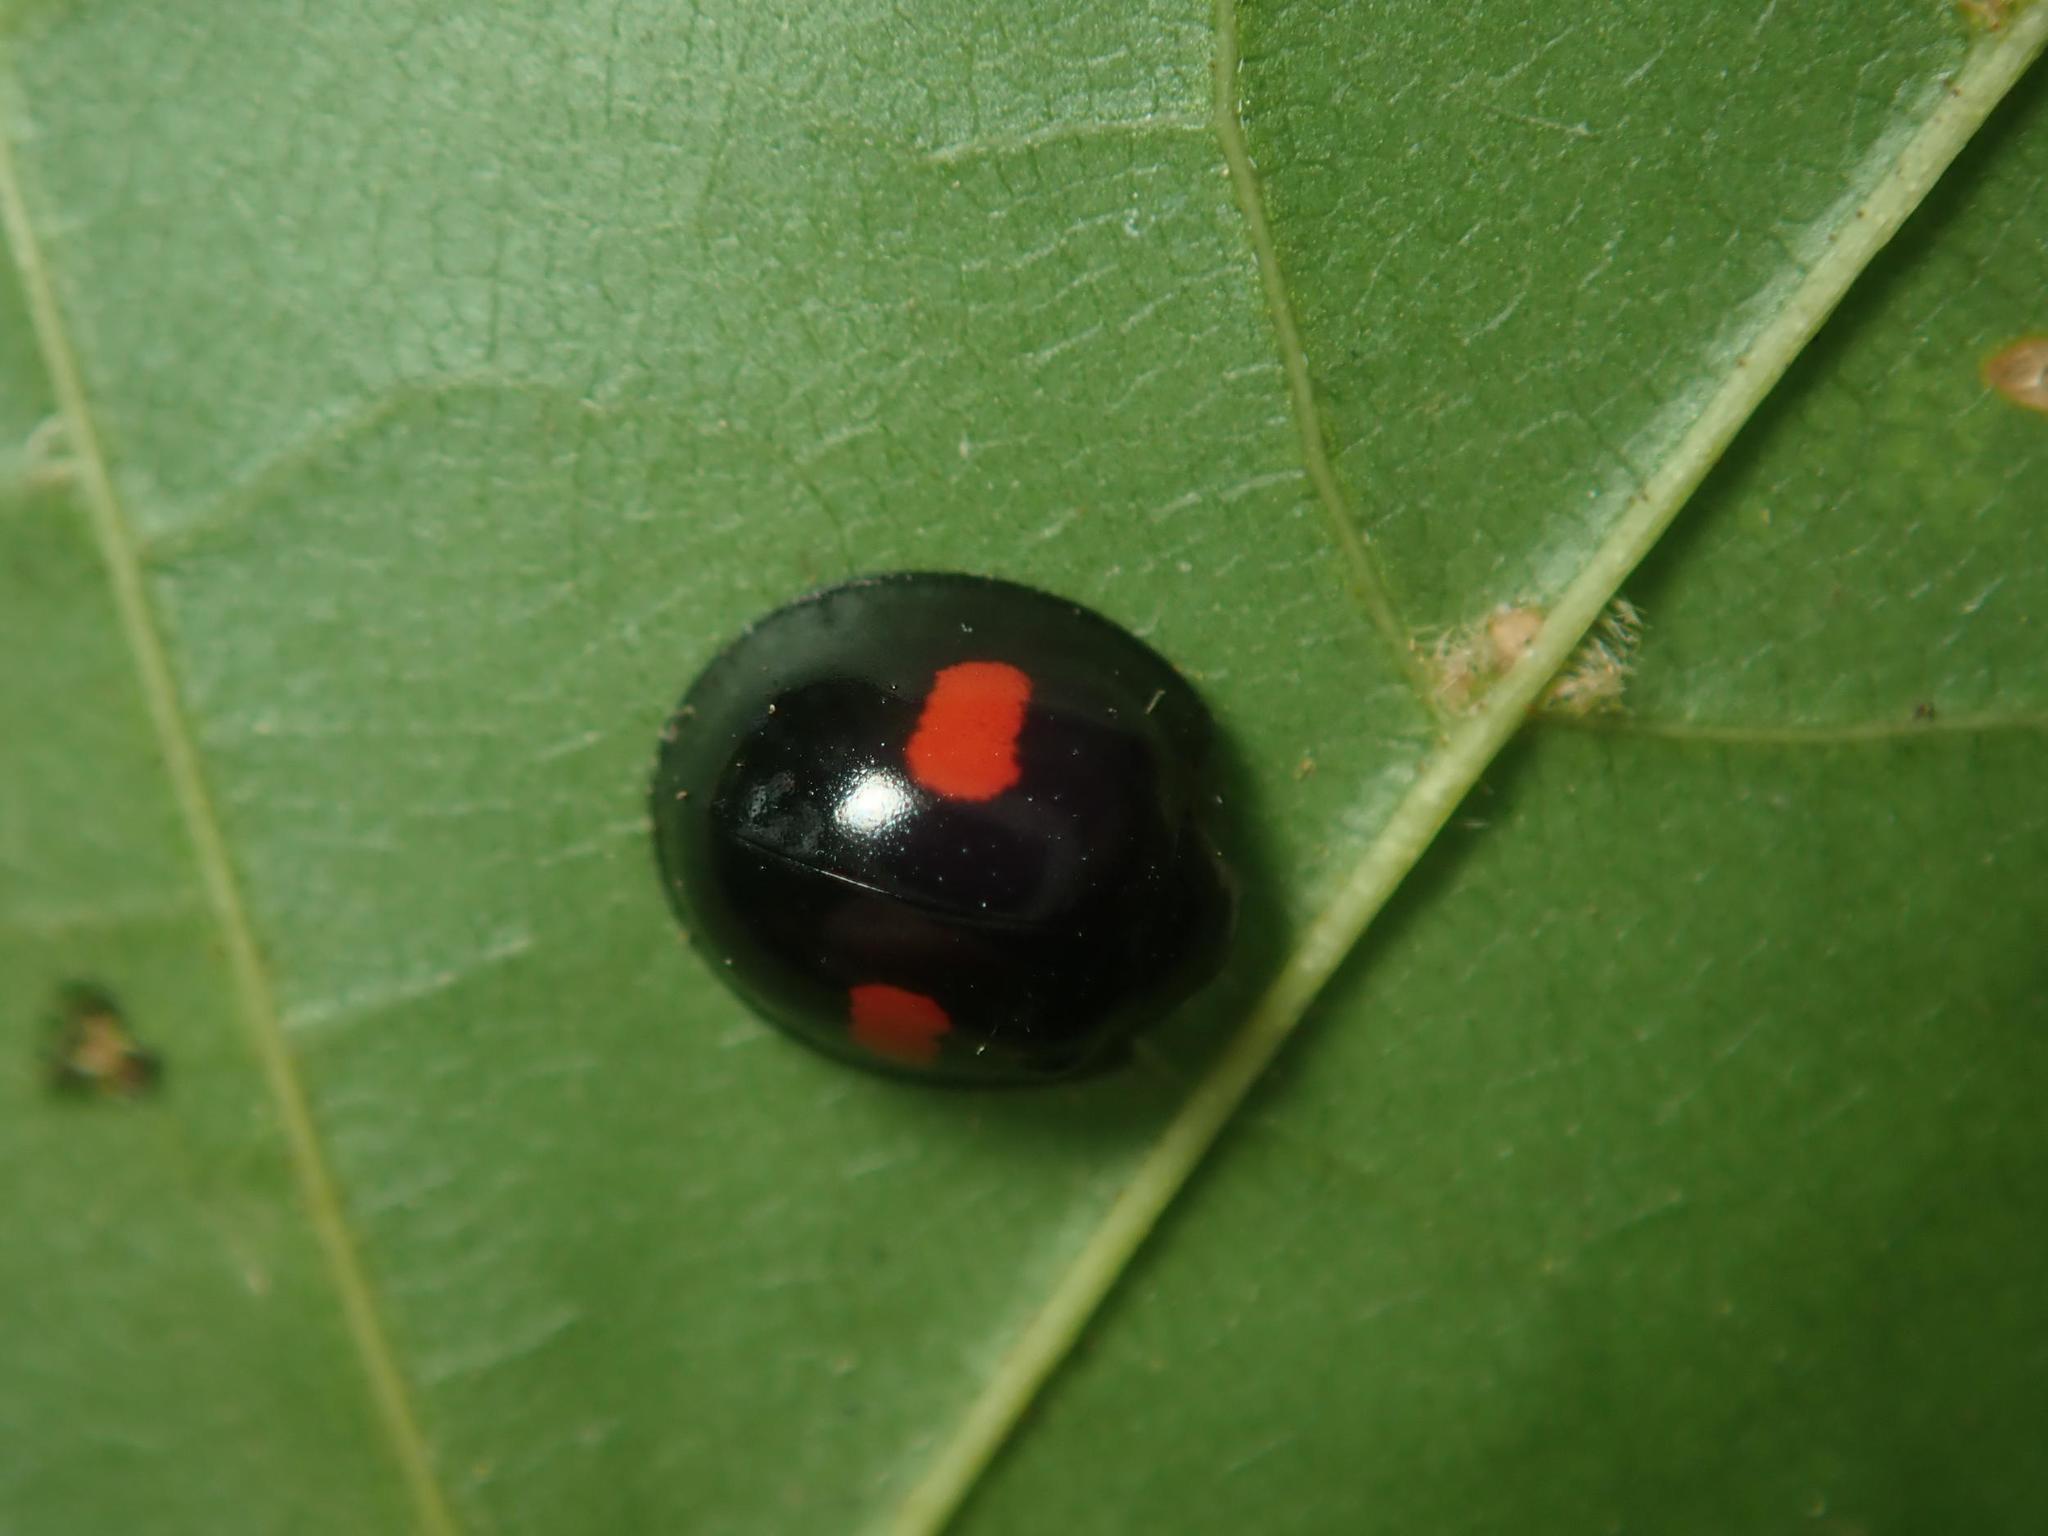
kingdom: Animalia
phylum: Arthropoda
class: Insecta
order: Coleoptera
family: Coccinellidae
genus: Chilocorus
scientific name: Chilocorus renipustulatus
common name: Kidney-spot ladybird
